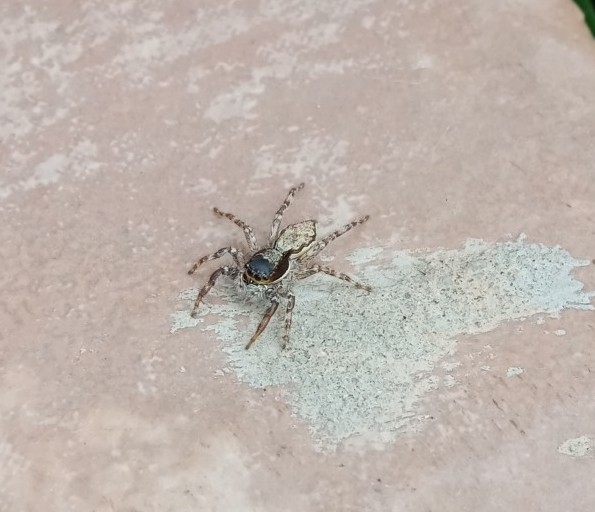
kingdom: Animalia
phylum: Arthropoda
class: Arachnida
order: Araneae
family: Salticidae
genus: Menemerus
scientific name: Menemerus bivittatus
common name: Gray wall jumper
